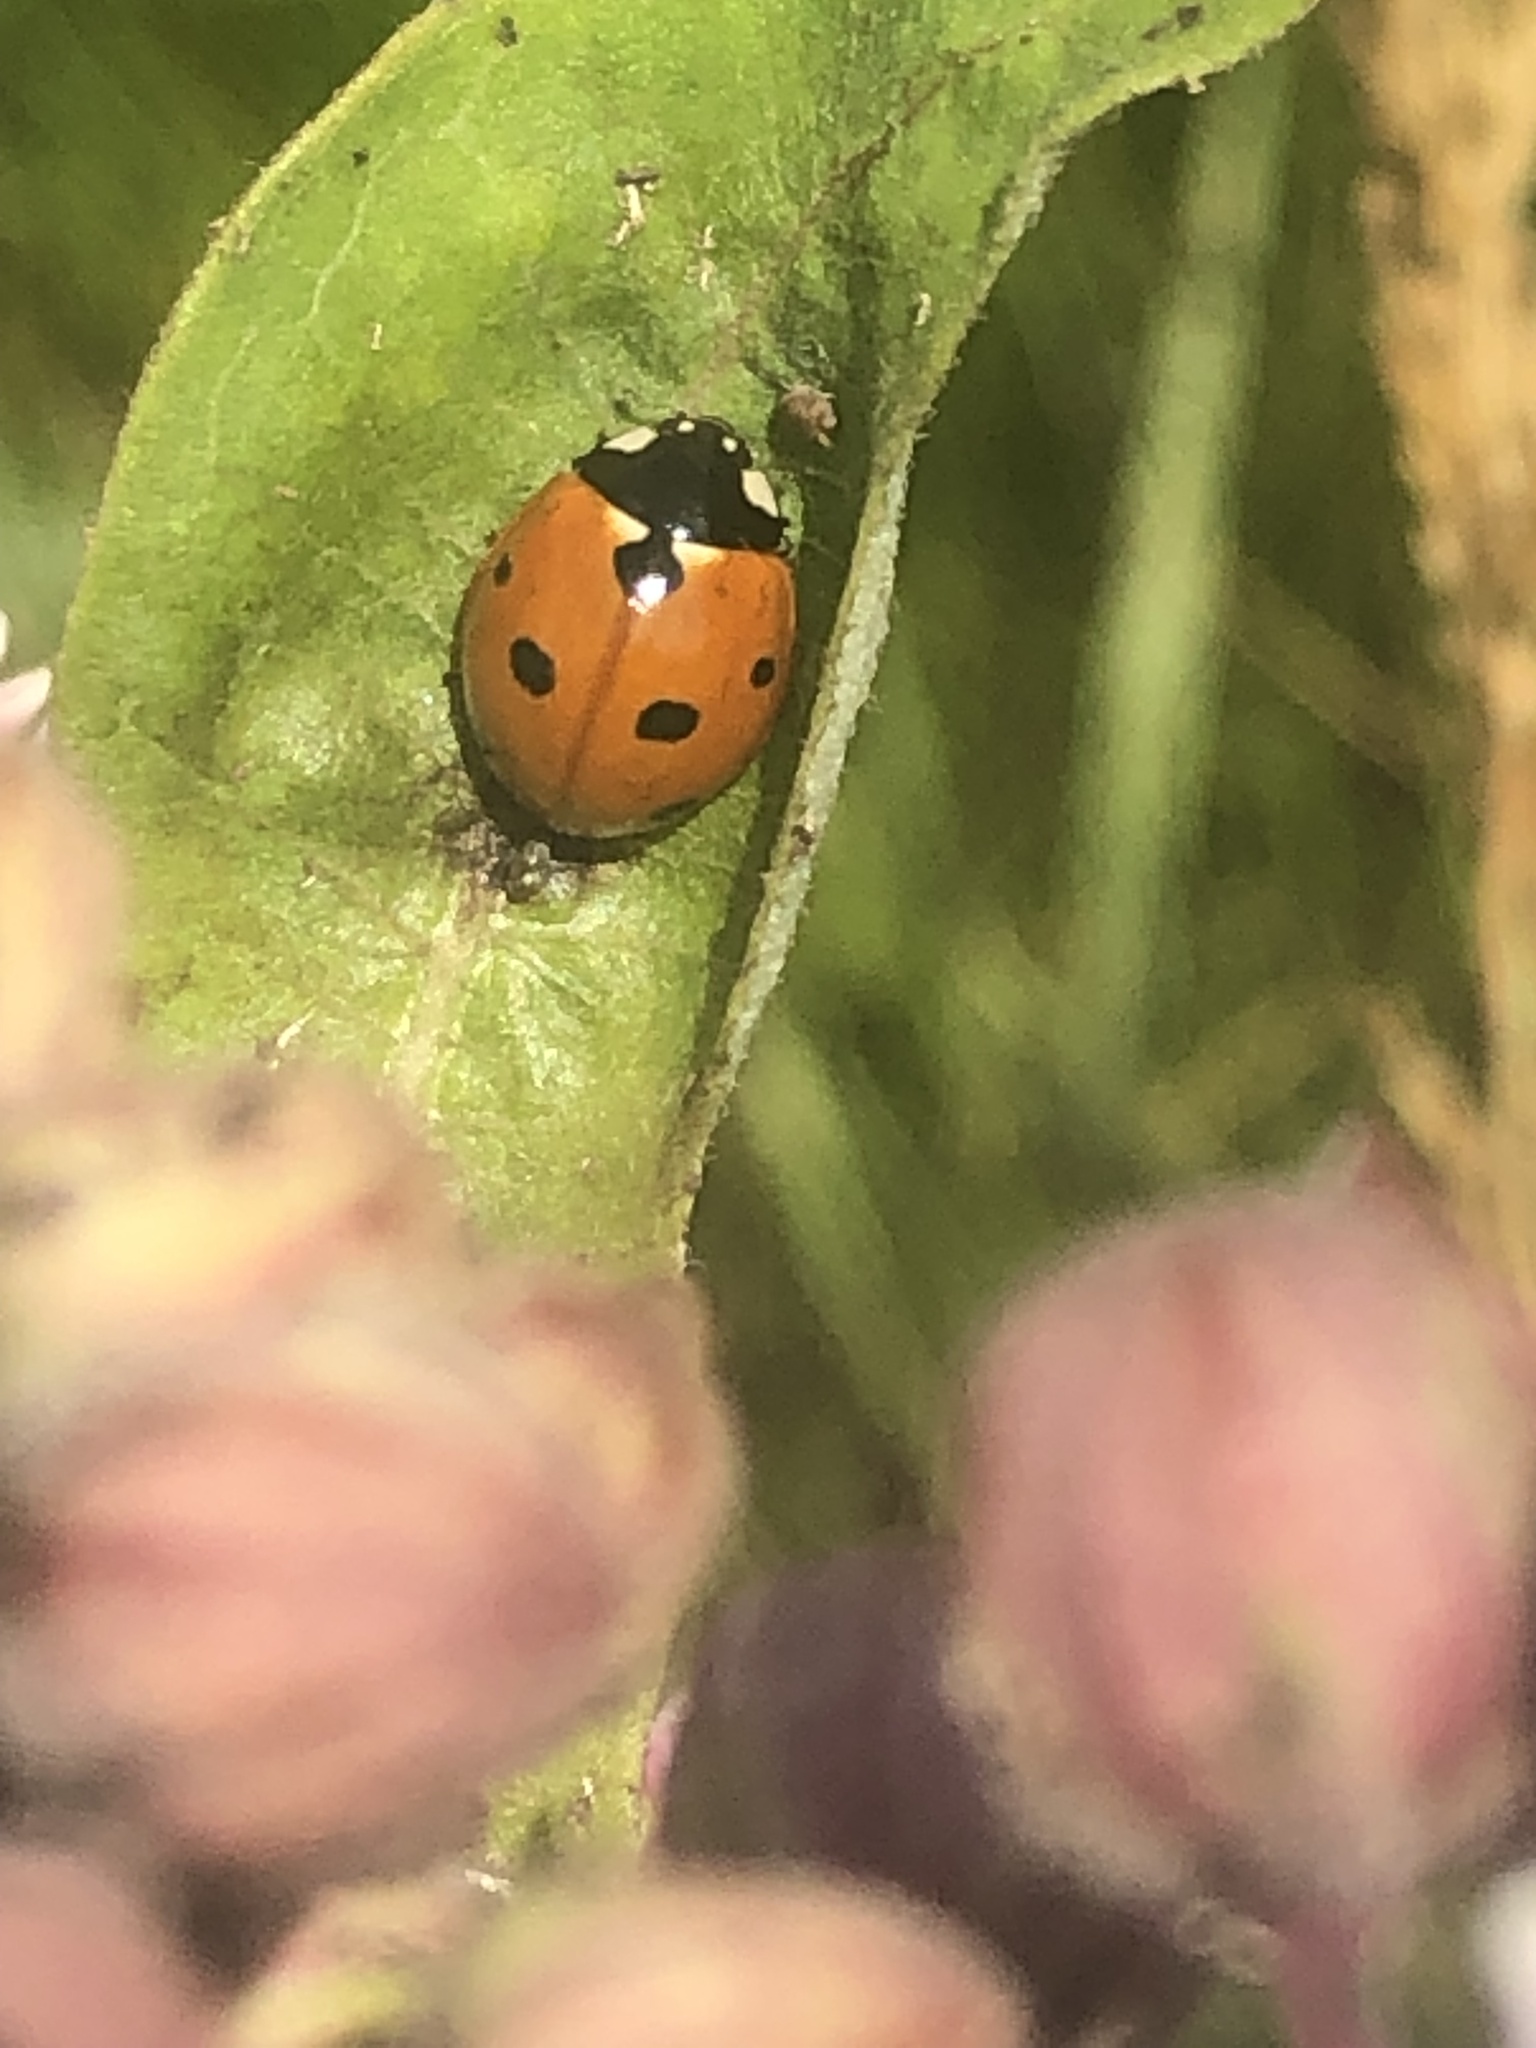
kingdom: Animalia
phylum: Arthropoda
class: Insecta
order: Coleoptera
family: Coccinellidae
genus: Coccinella
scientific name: Coccinella septempunctata
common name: Sevenspotted lady beetle
